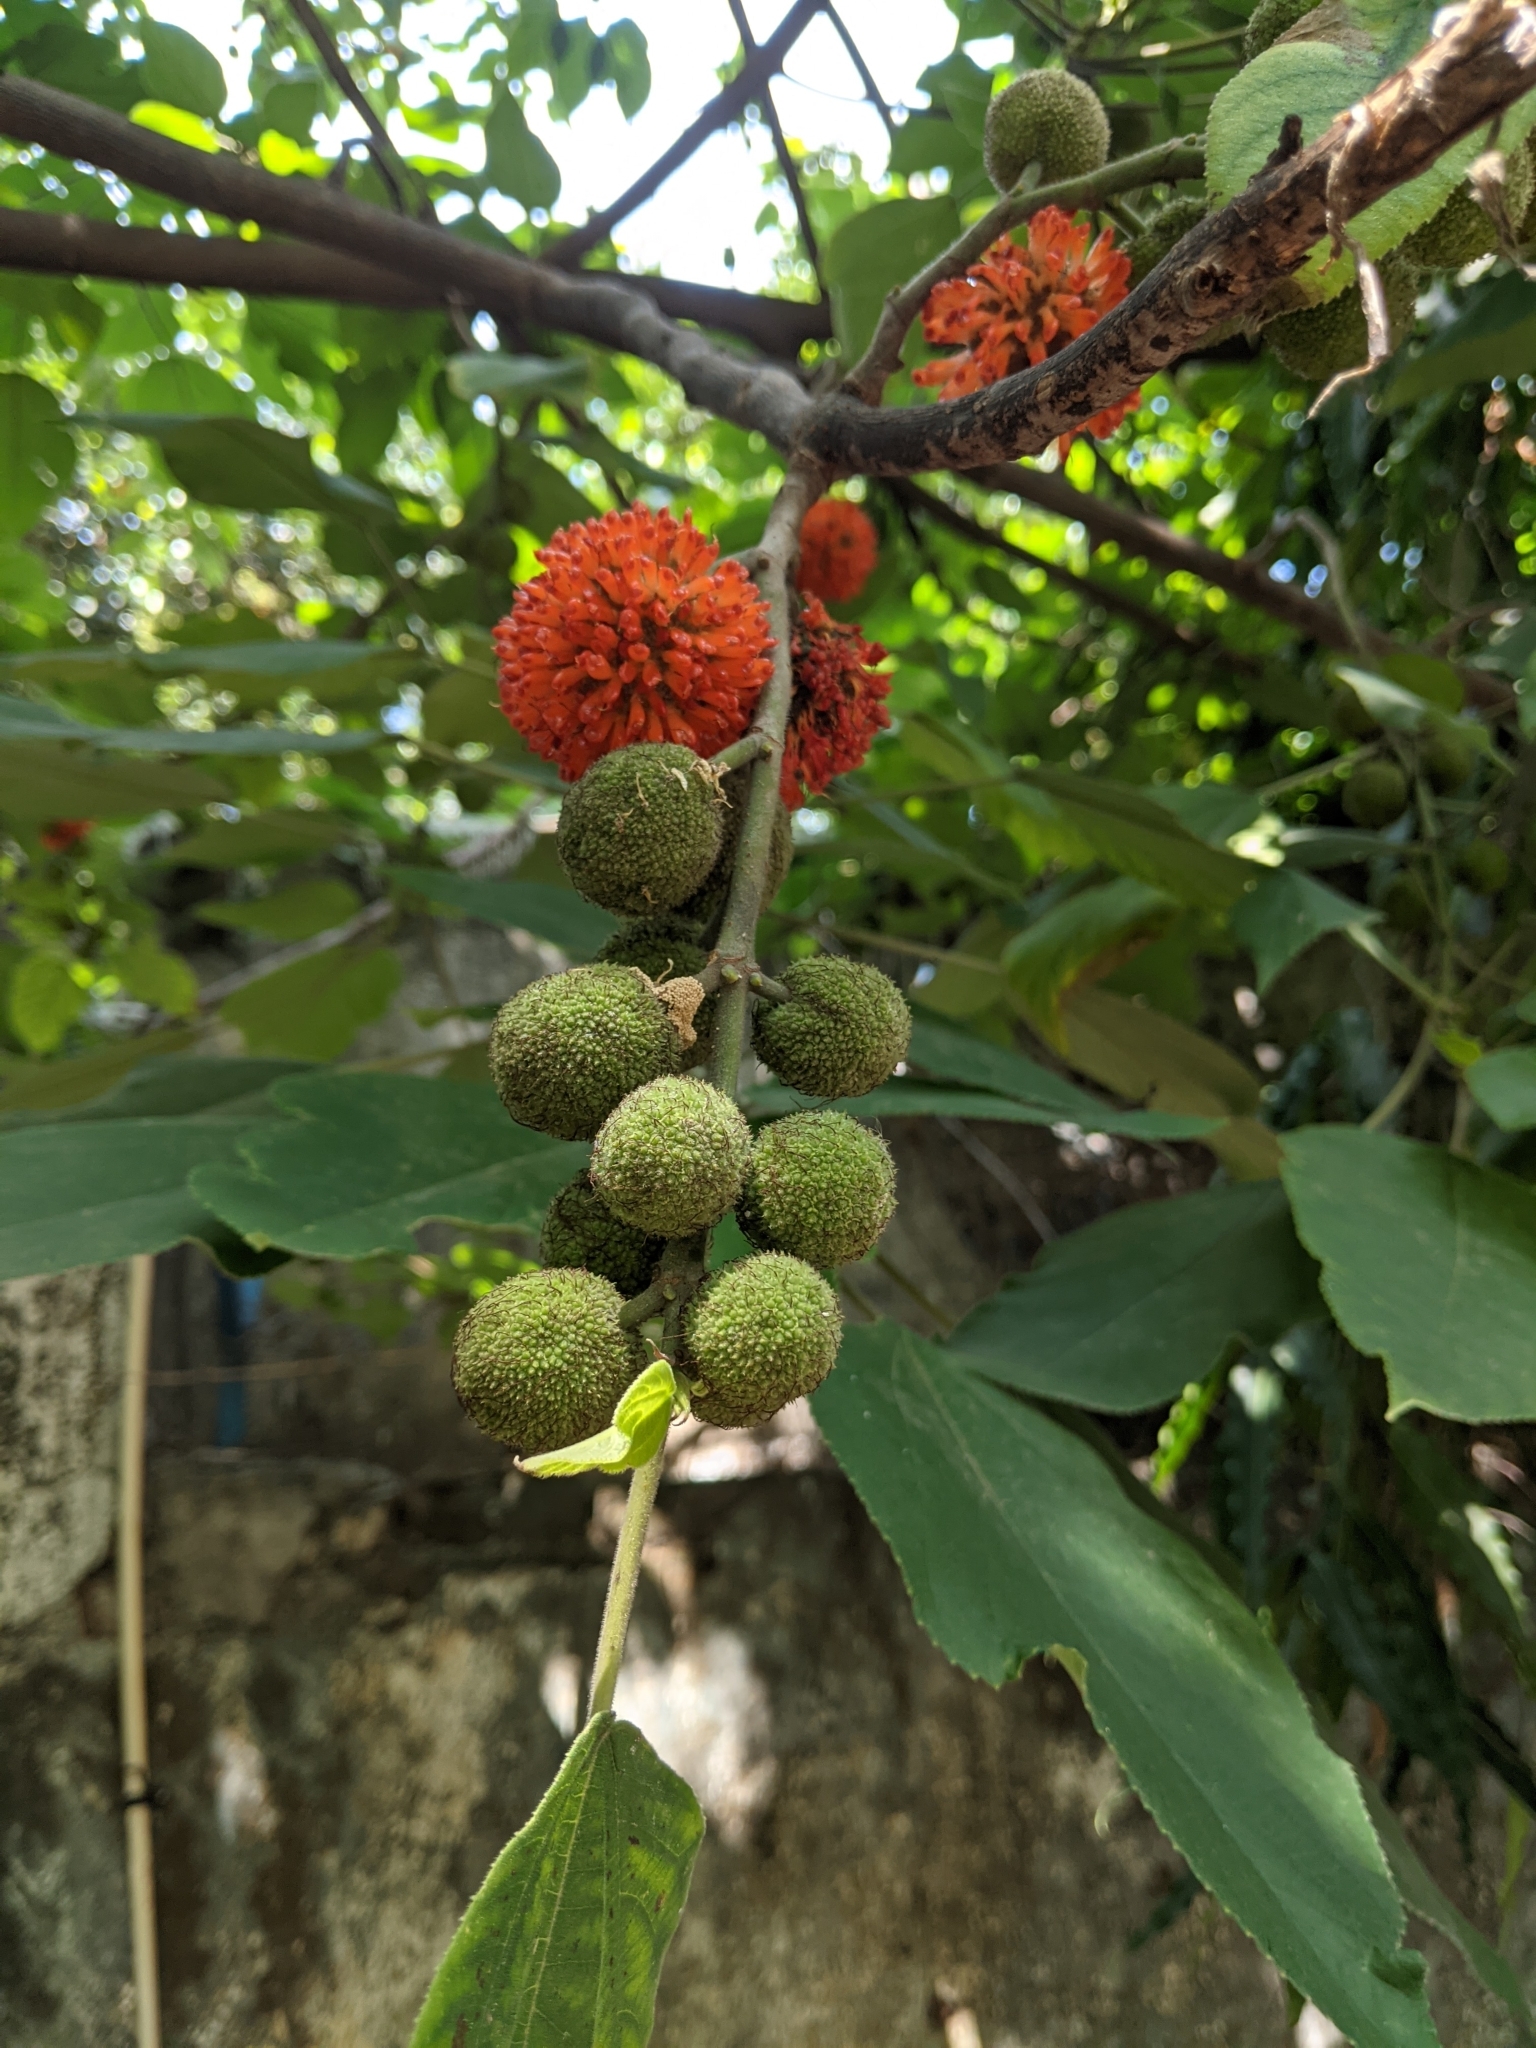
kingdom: Plantae
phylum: Tracheophyta
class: Magnoliopsida
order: Rosales
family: Moraceae
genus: Broussonetia
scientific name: Broussonetia papyrifera
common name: Paper mulberry
